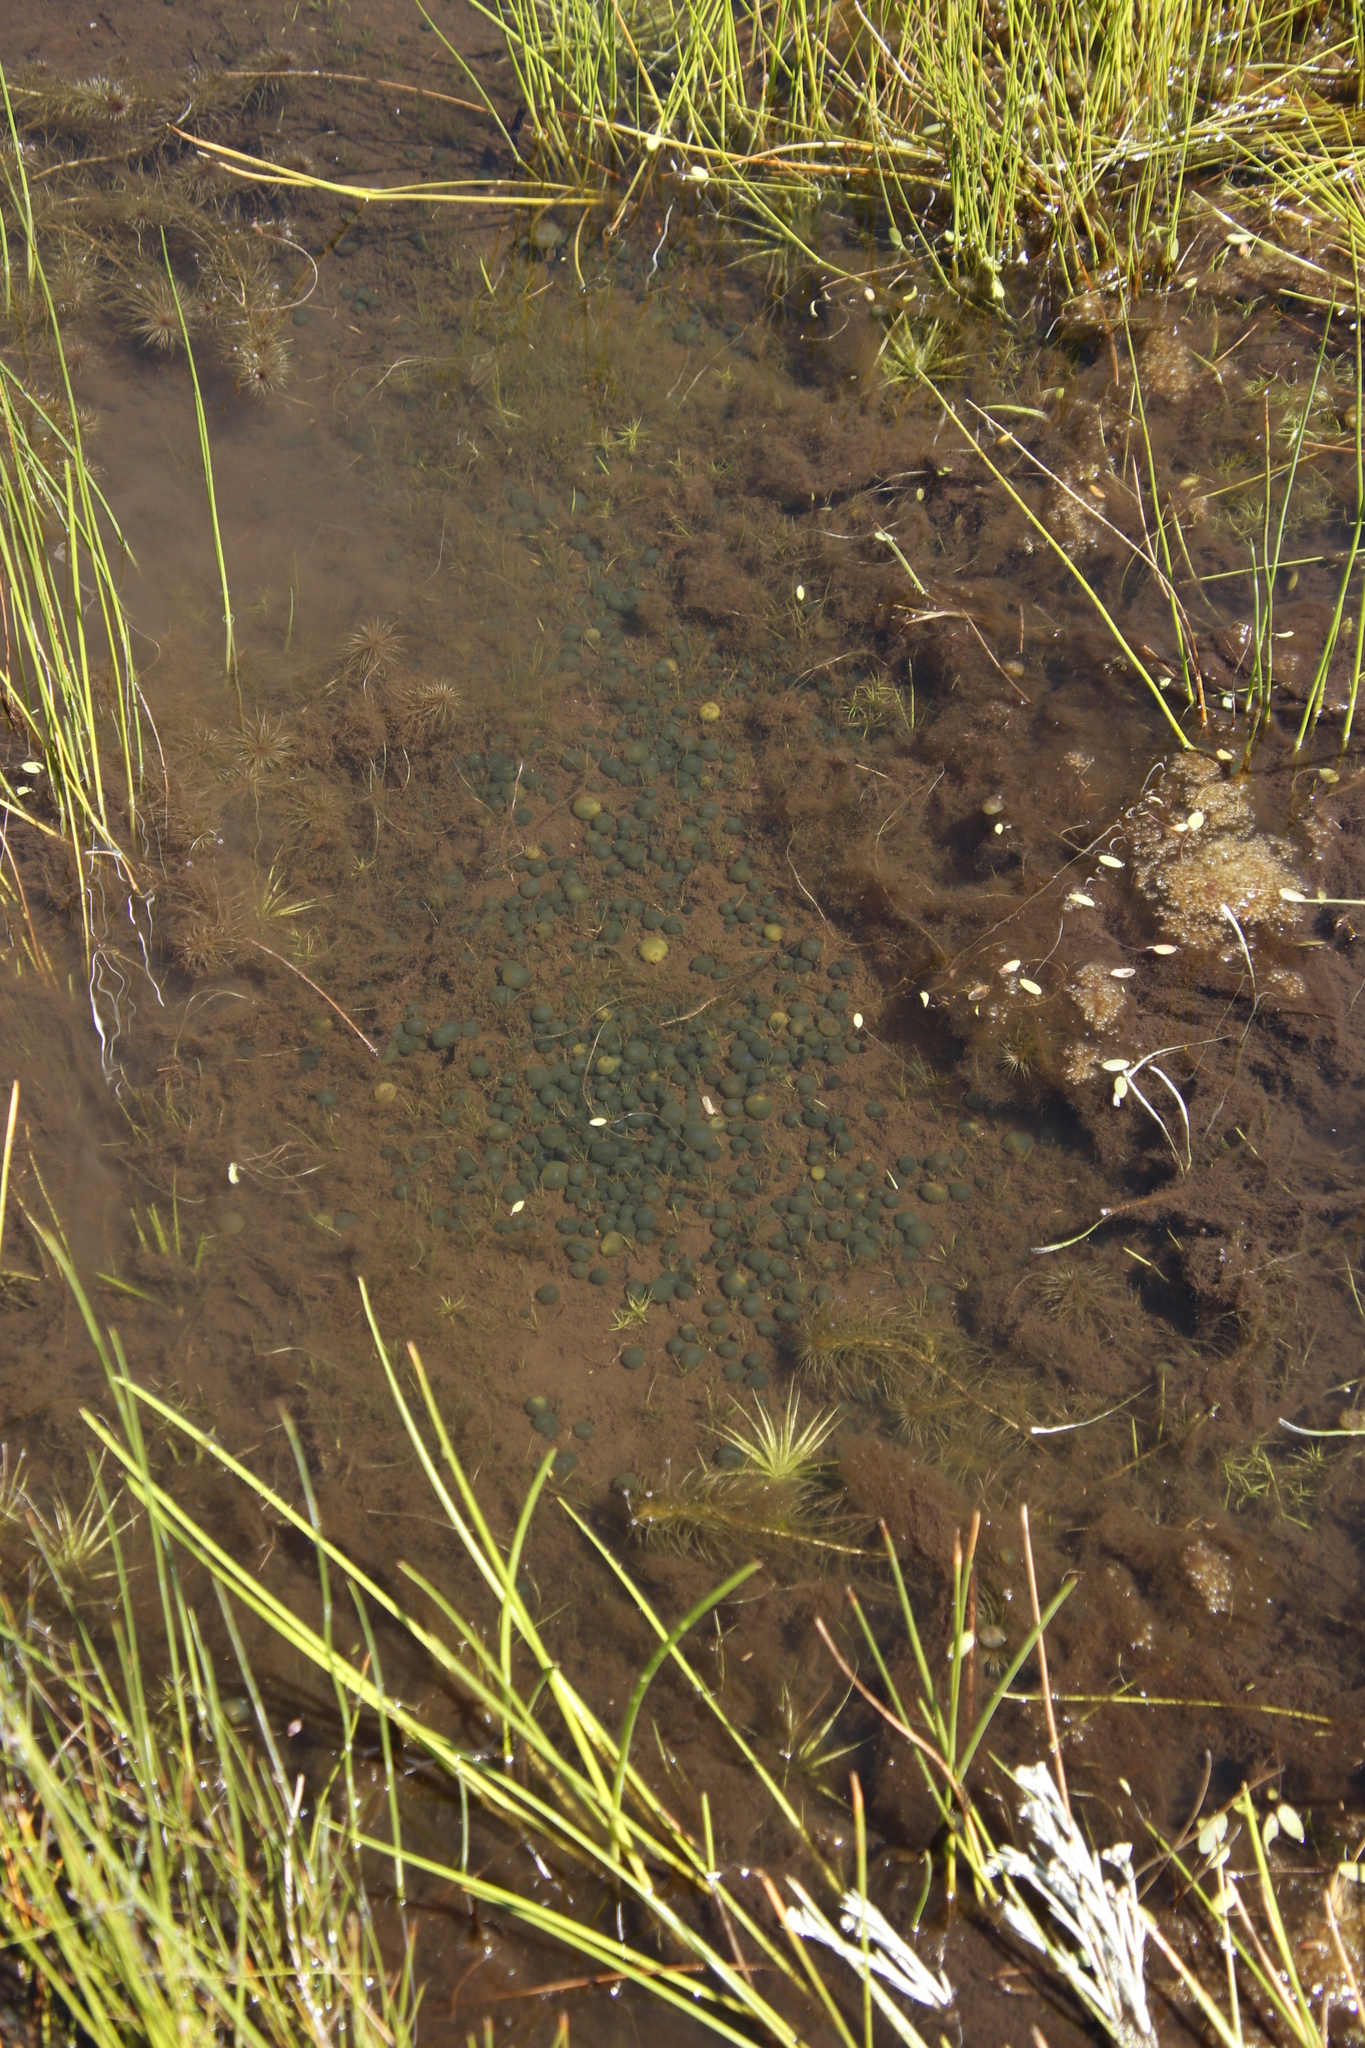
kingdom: Bacteria
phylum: Cyanobacteria
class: Cyanobacteriia
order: Cyanobacteriales
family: Nostocaceae
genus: Nostoc
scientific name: Nostoc
